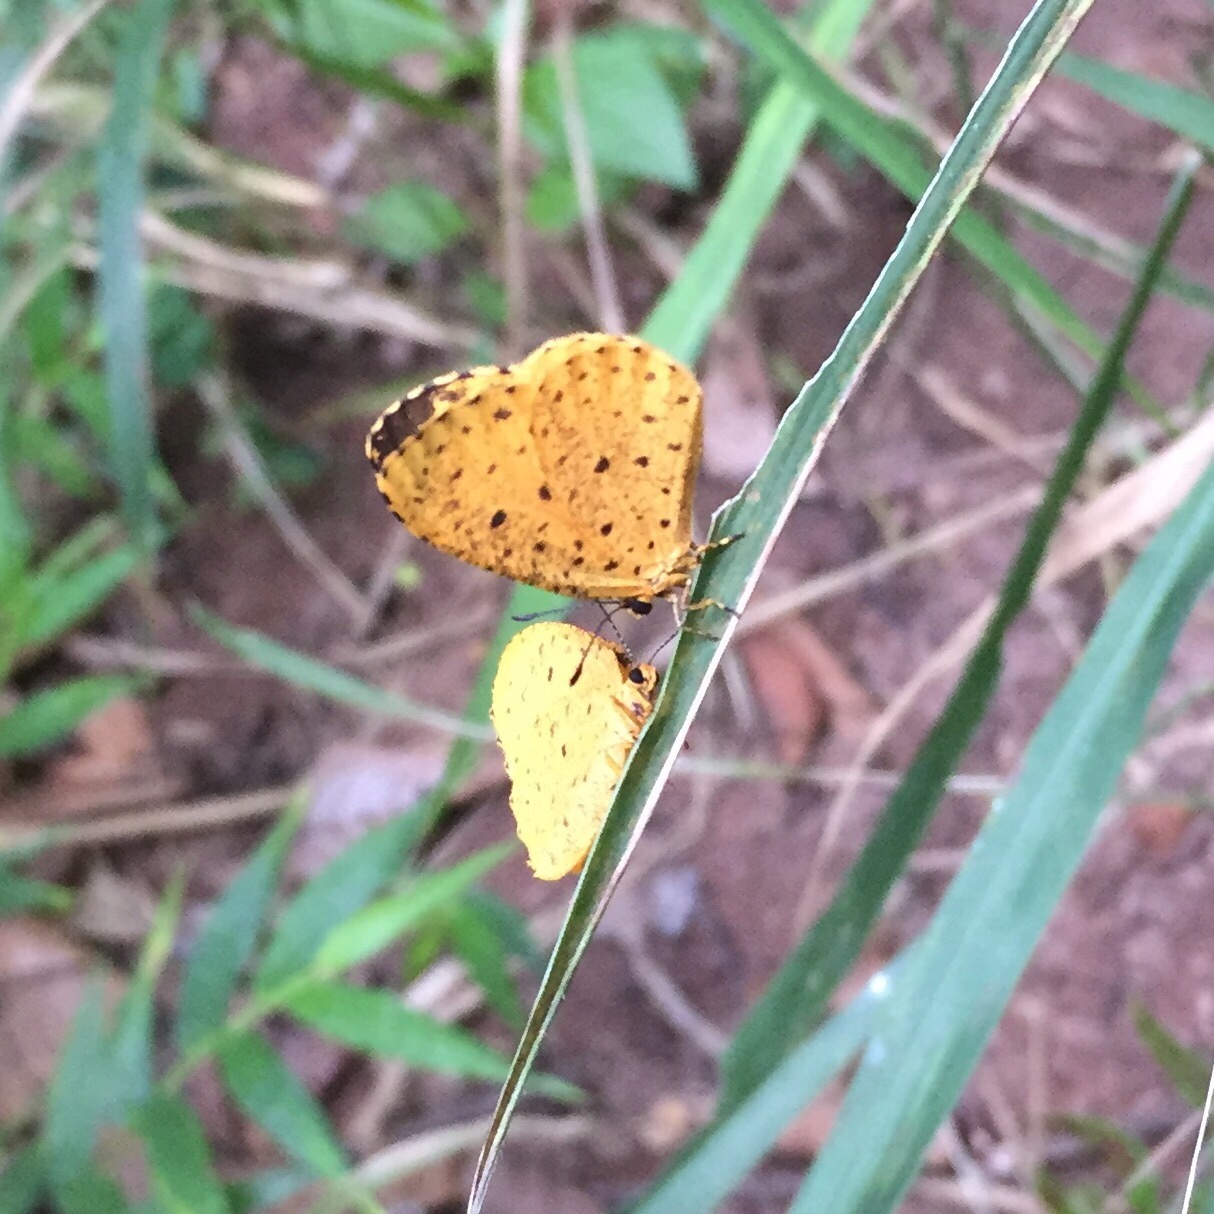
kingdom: Animalia
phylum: Arthropoda
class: Insecta
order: Lepidoptera
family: Lycaenidae
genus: Pentila
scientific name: Pentila tropicalis
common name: Spotted buff
